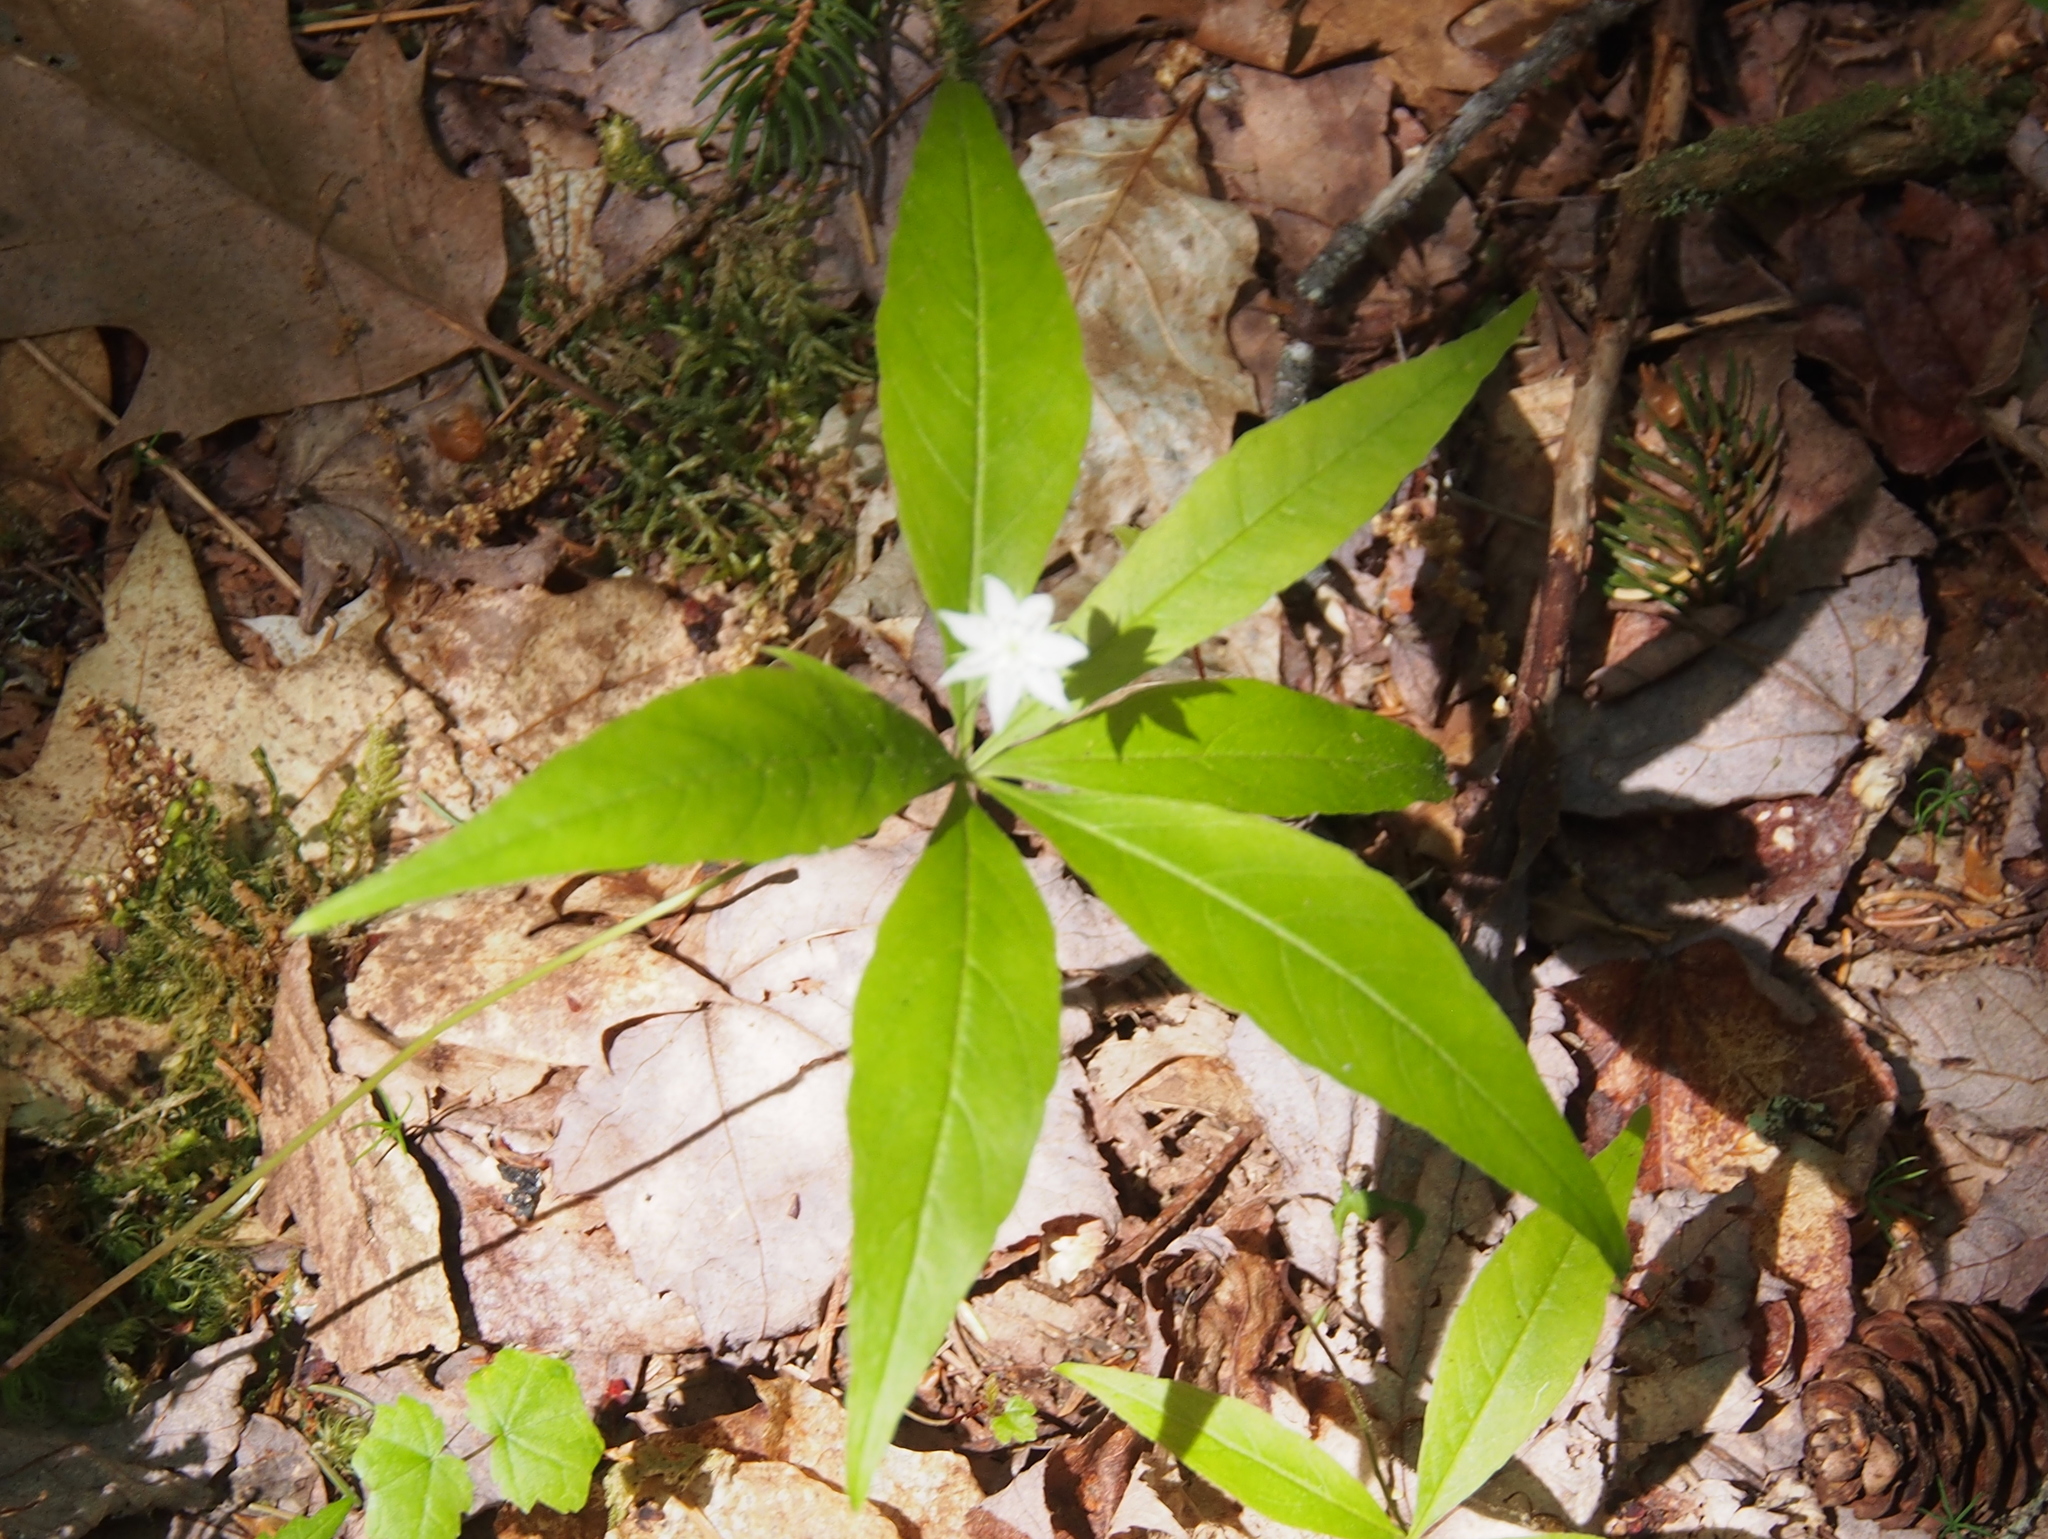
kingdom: Plantae
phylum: Tracheophyta
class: Magnoliopsida
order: Ericales
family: Primulaceae
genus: Lysimachia
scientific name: Lysimachia borealis
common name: American starflower
